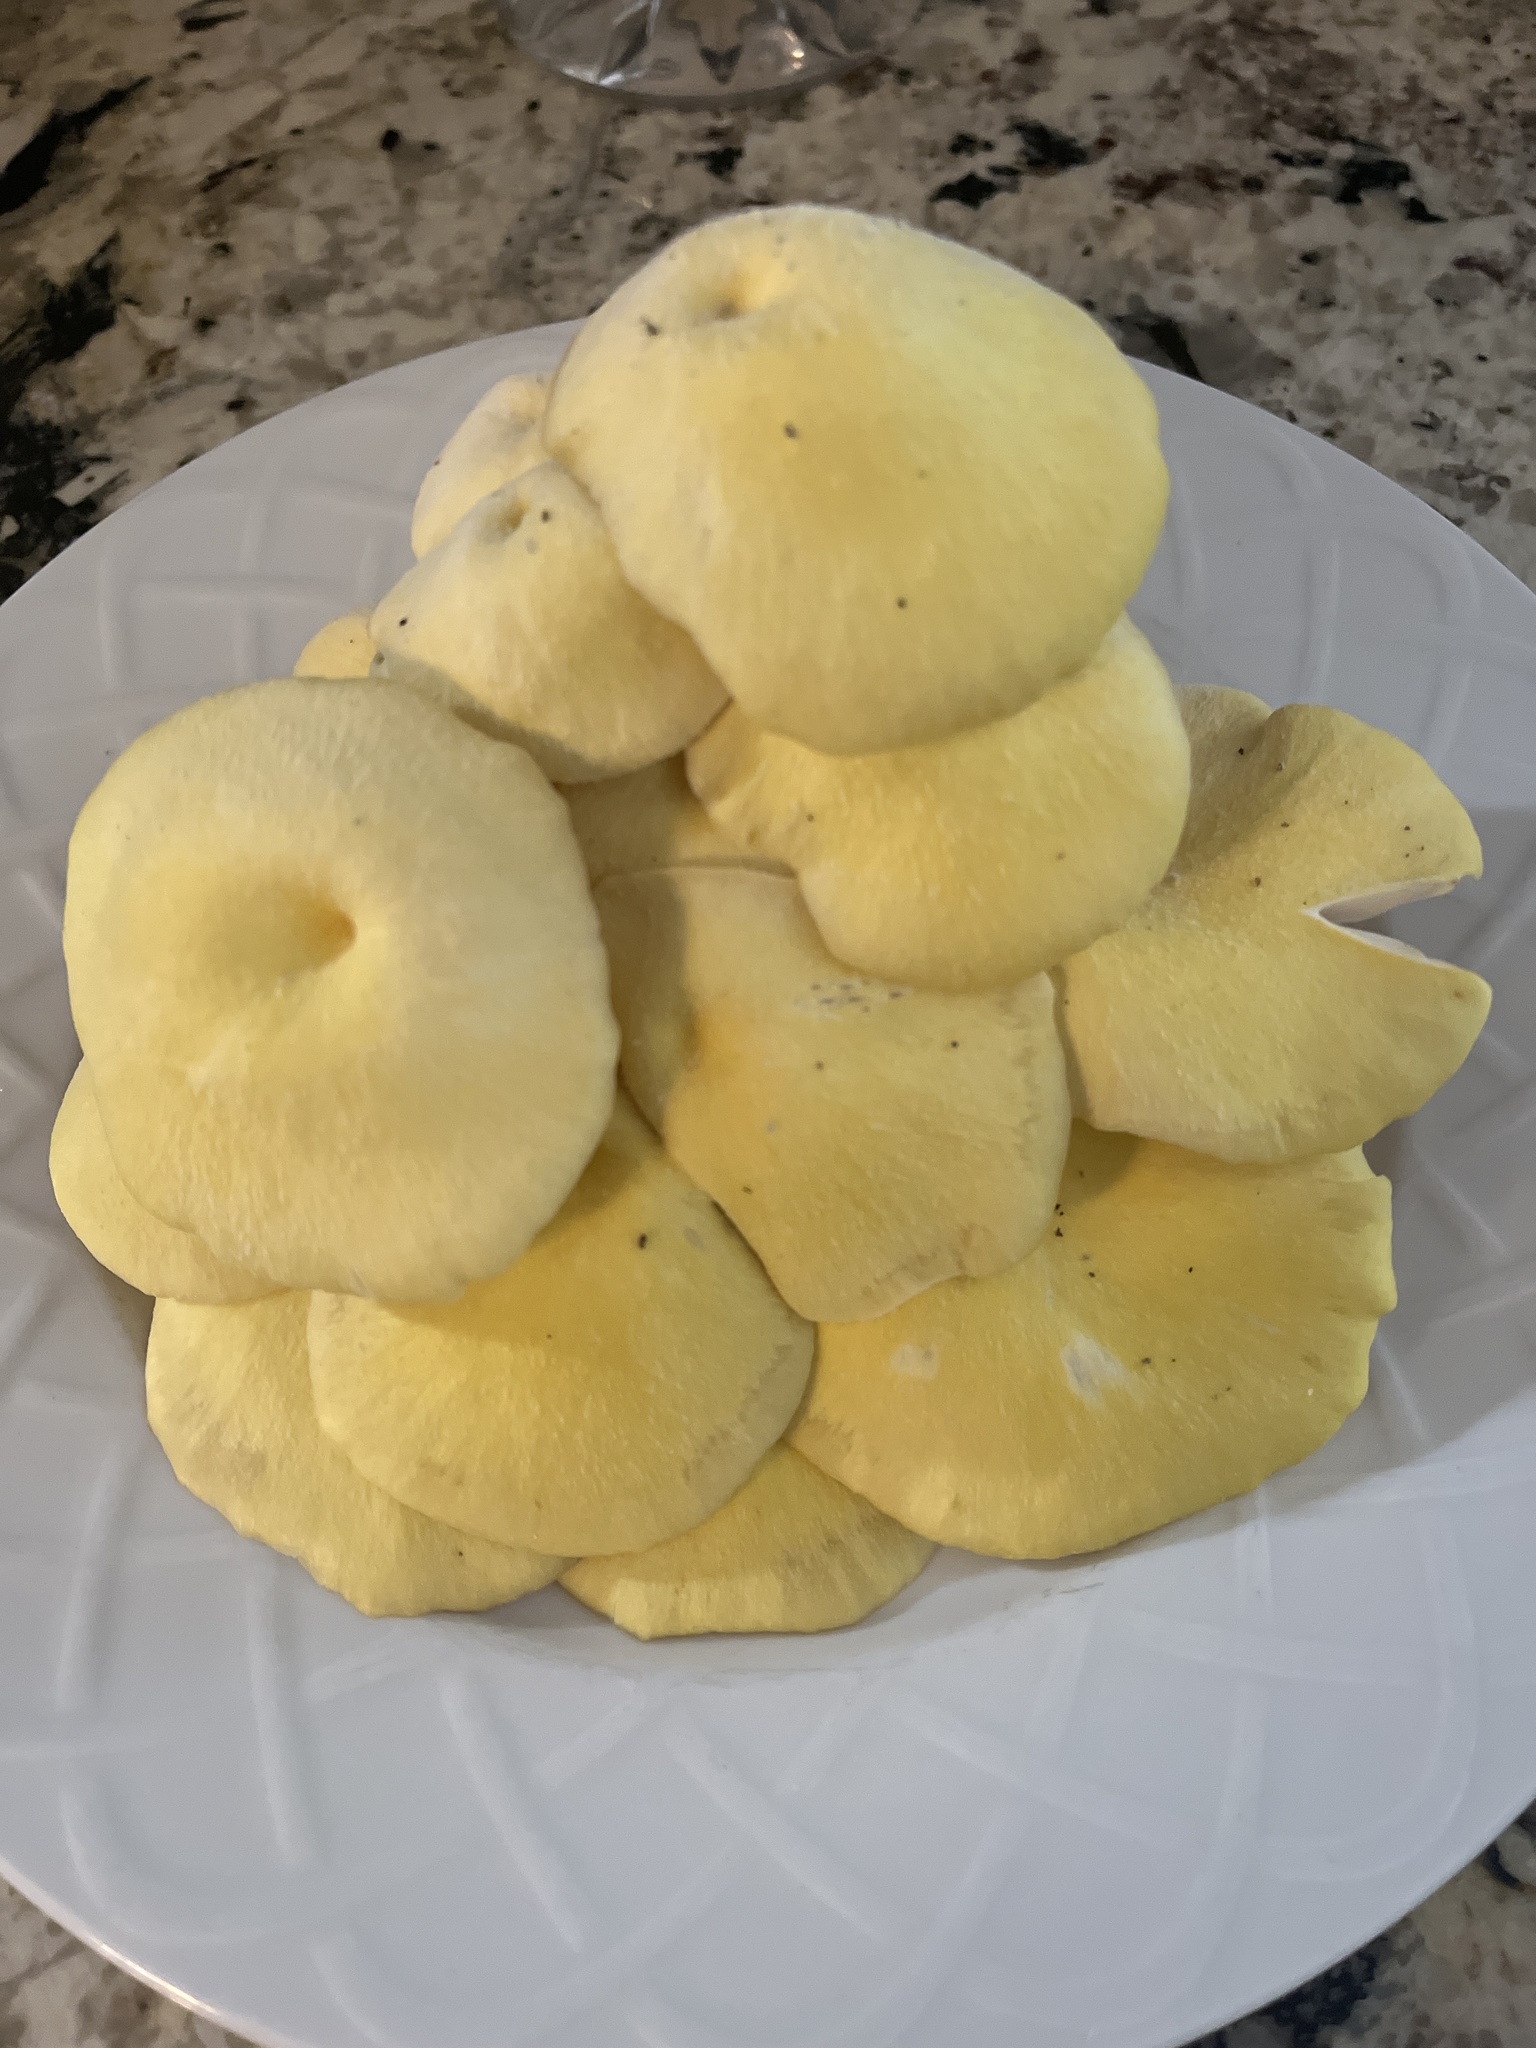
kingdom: Fungi
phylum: Basidiomycota
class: Agaricomycetes
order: Agaricales
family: Pleurotaceae
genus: Pleurotus
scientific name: Pleurotus citrinopileatus
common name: Golden oyster mushroom
